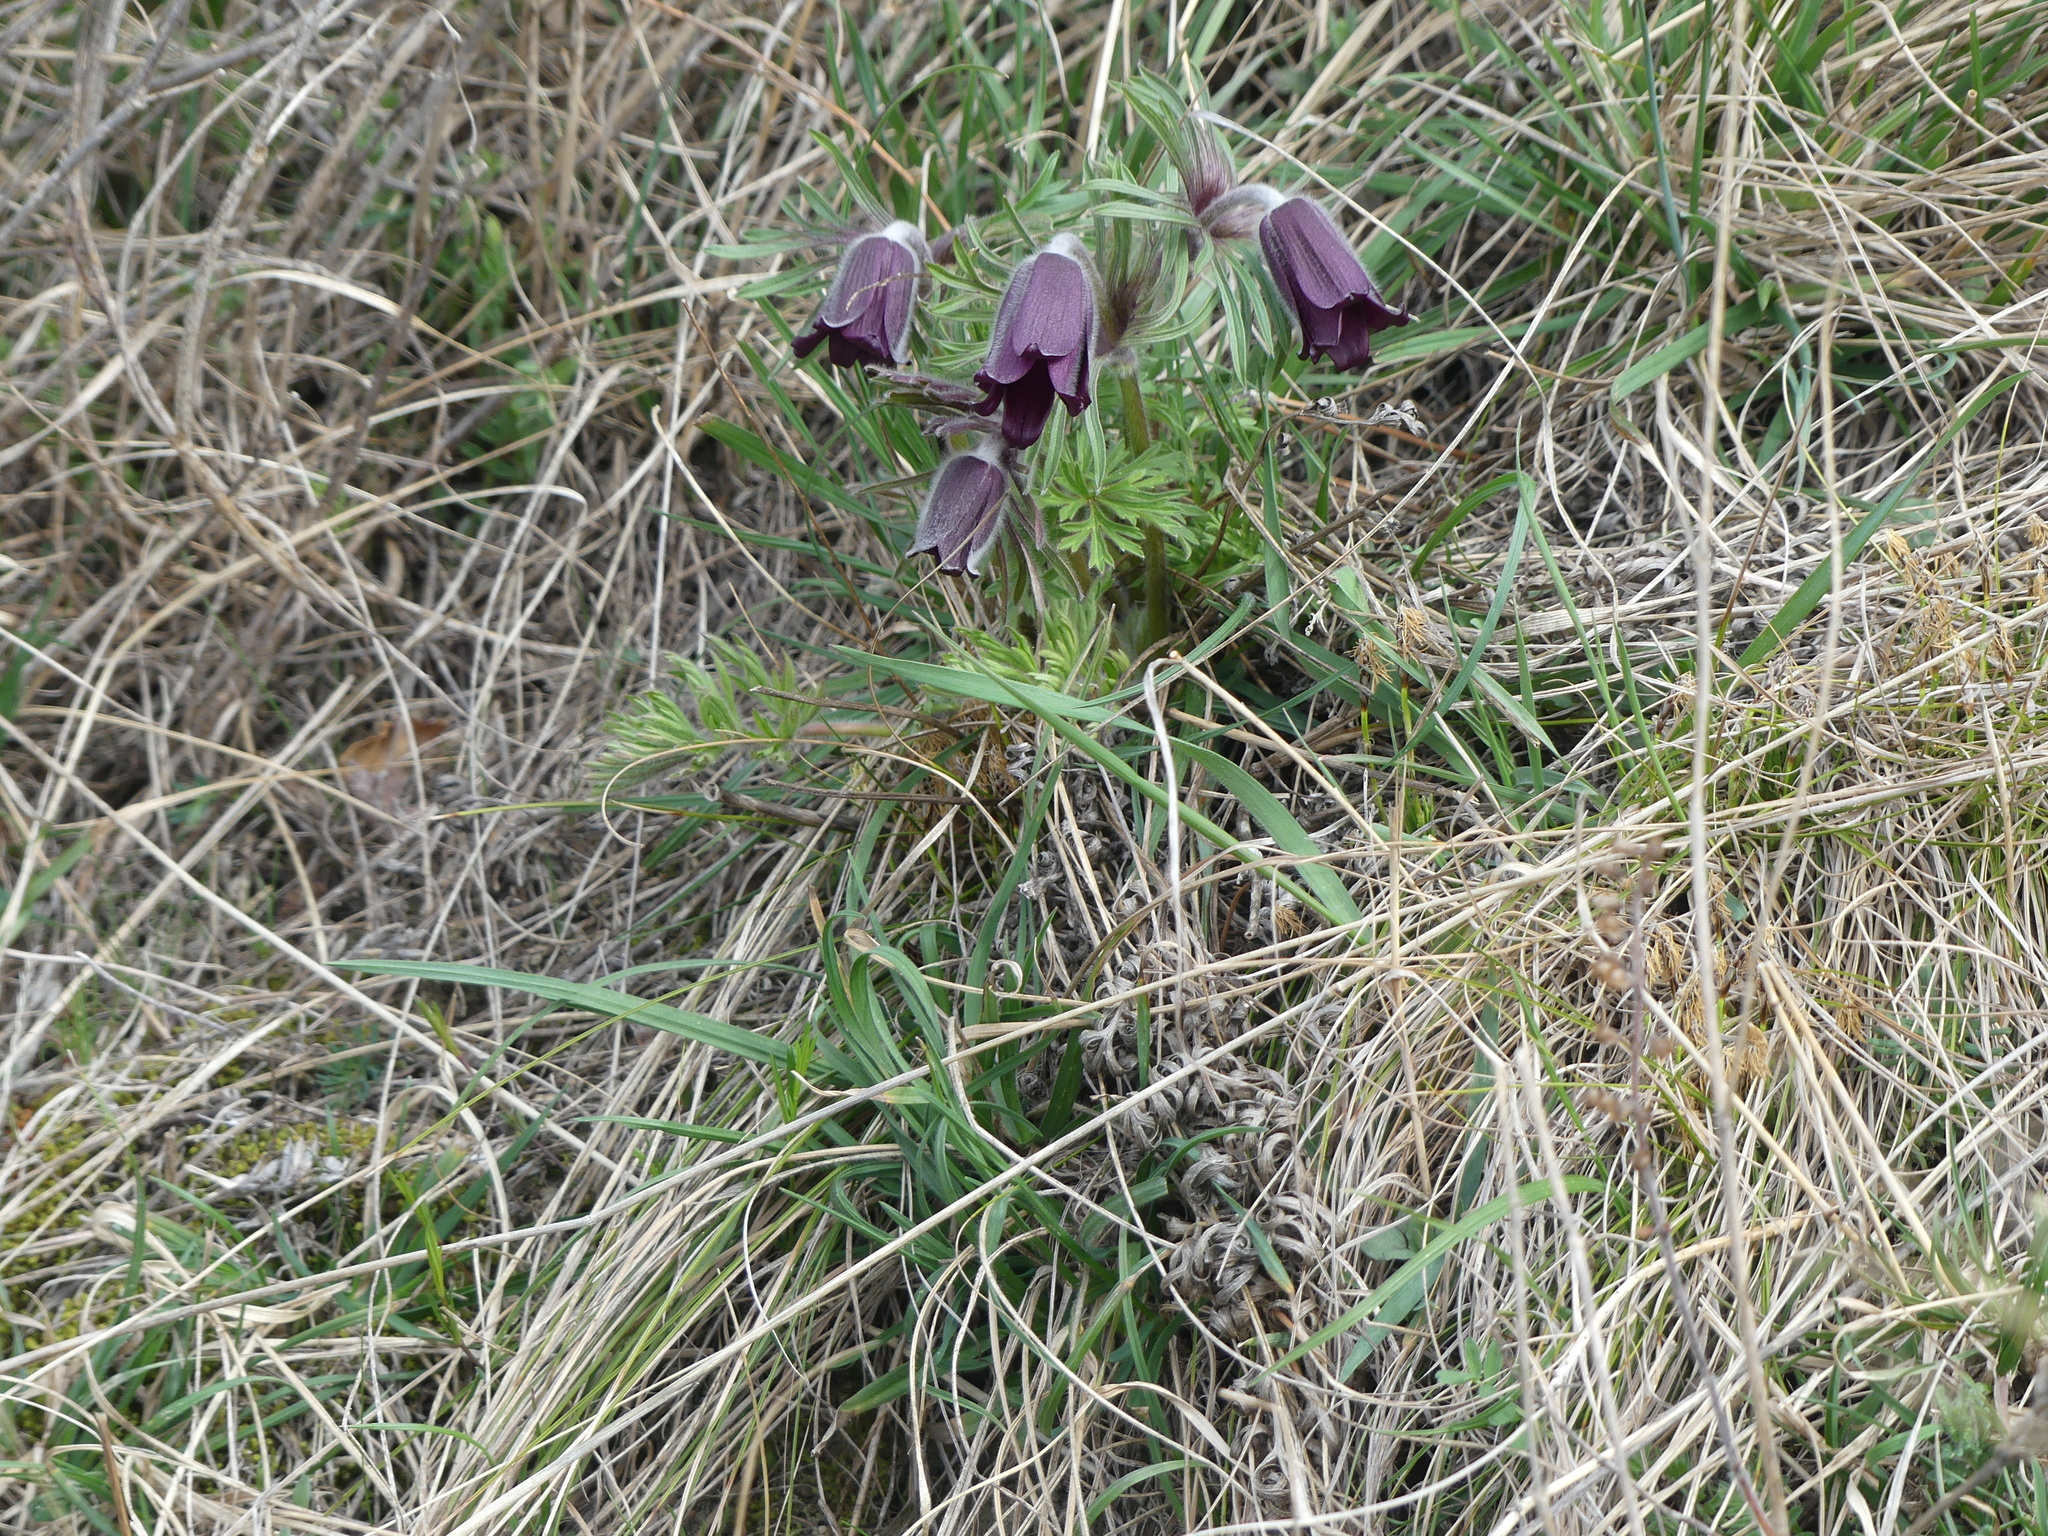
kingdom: Plantae
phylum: Tracheophyta
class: Magnoliopsida
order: Ranunculales
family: Ranunculaceae
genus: Pulsatilla
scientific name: Pulsatilla pratensis
